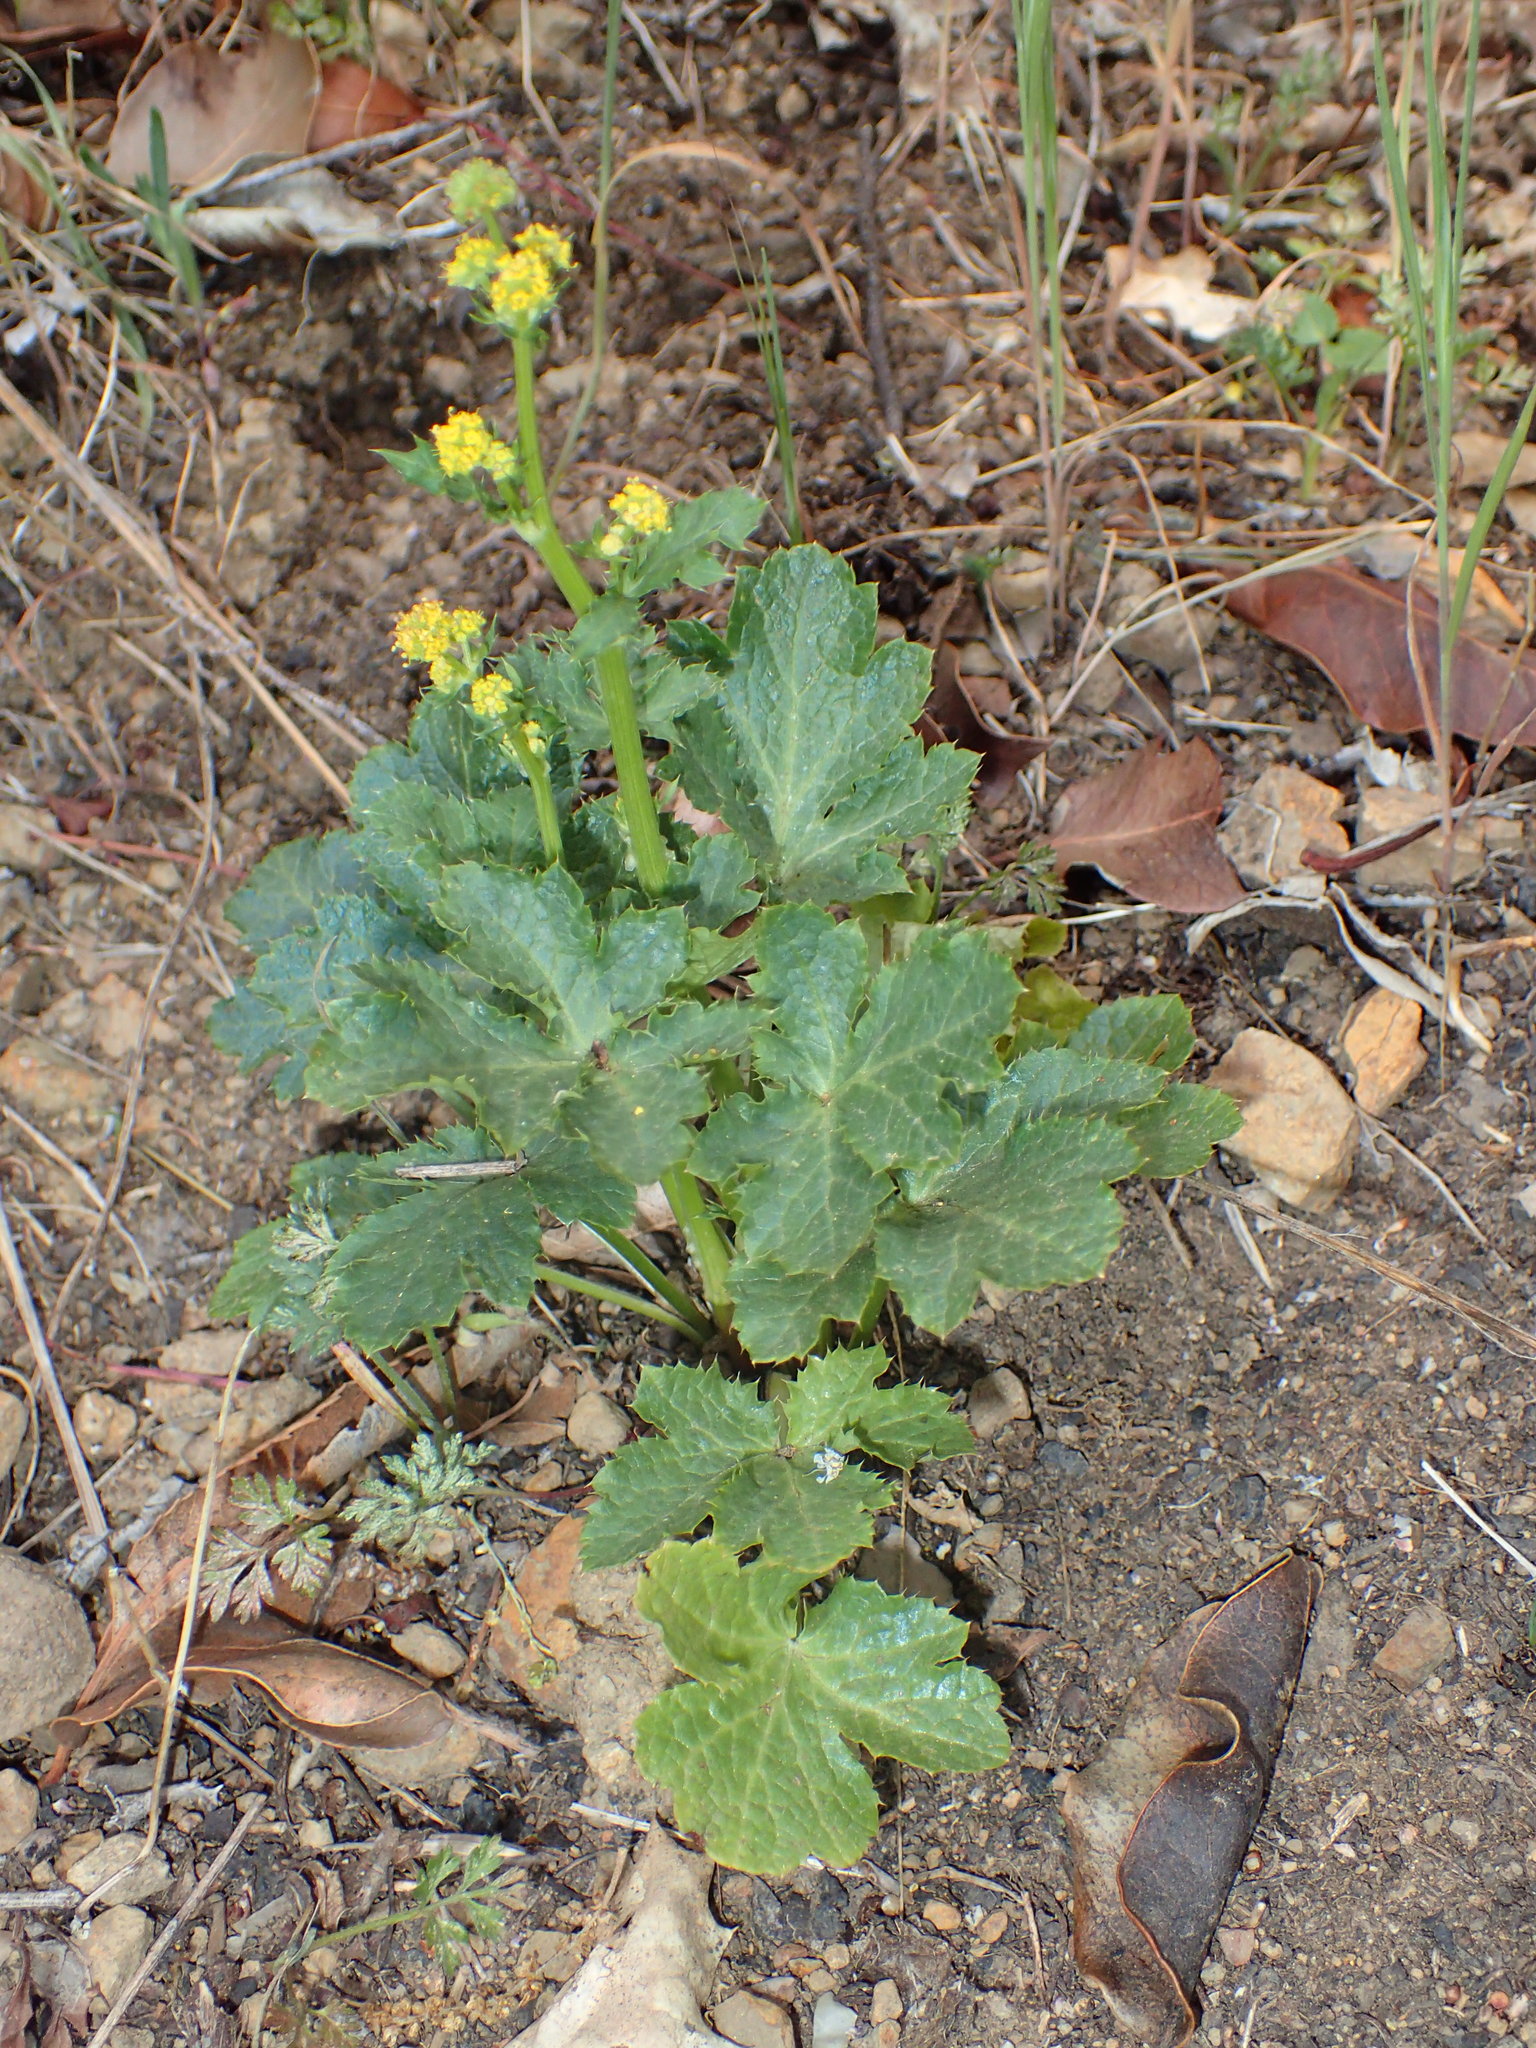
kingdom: Plantae
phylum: Tracheophyta
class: Magnoliopsida
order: Apiales
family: Apiaceae
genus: Sanicula
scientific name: Sanicula crassicaulis
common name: Western snakeroot
